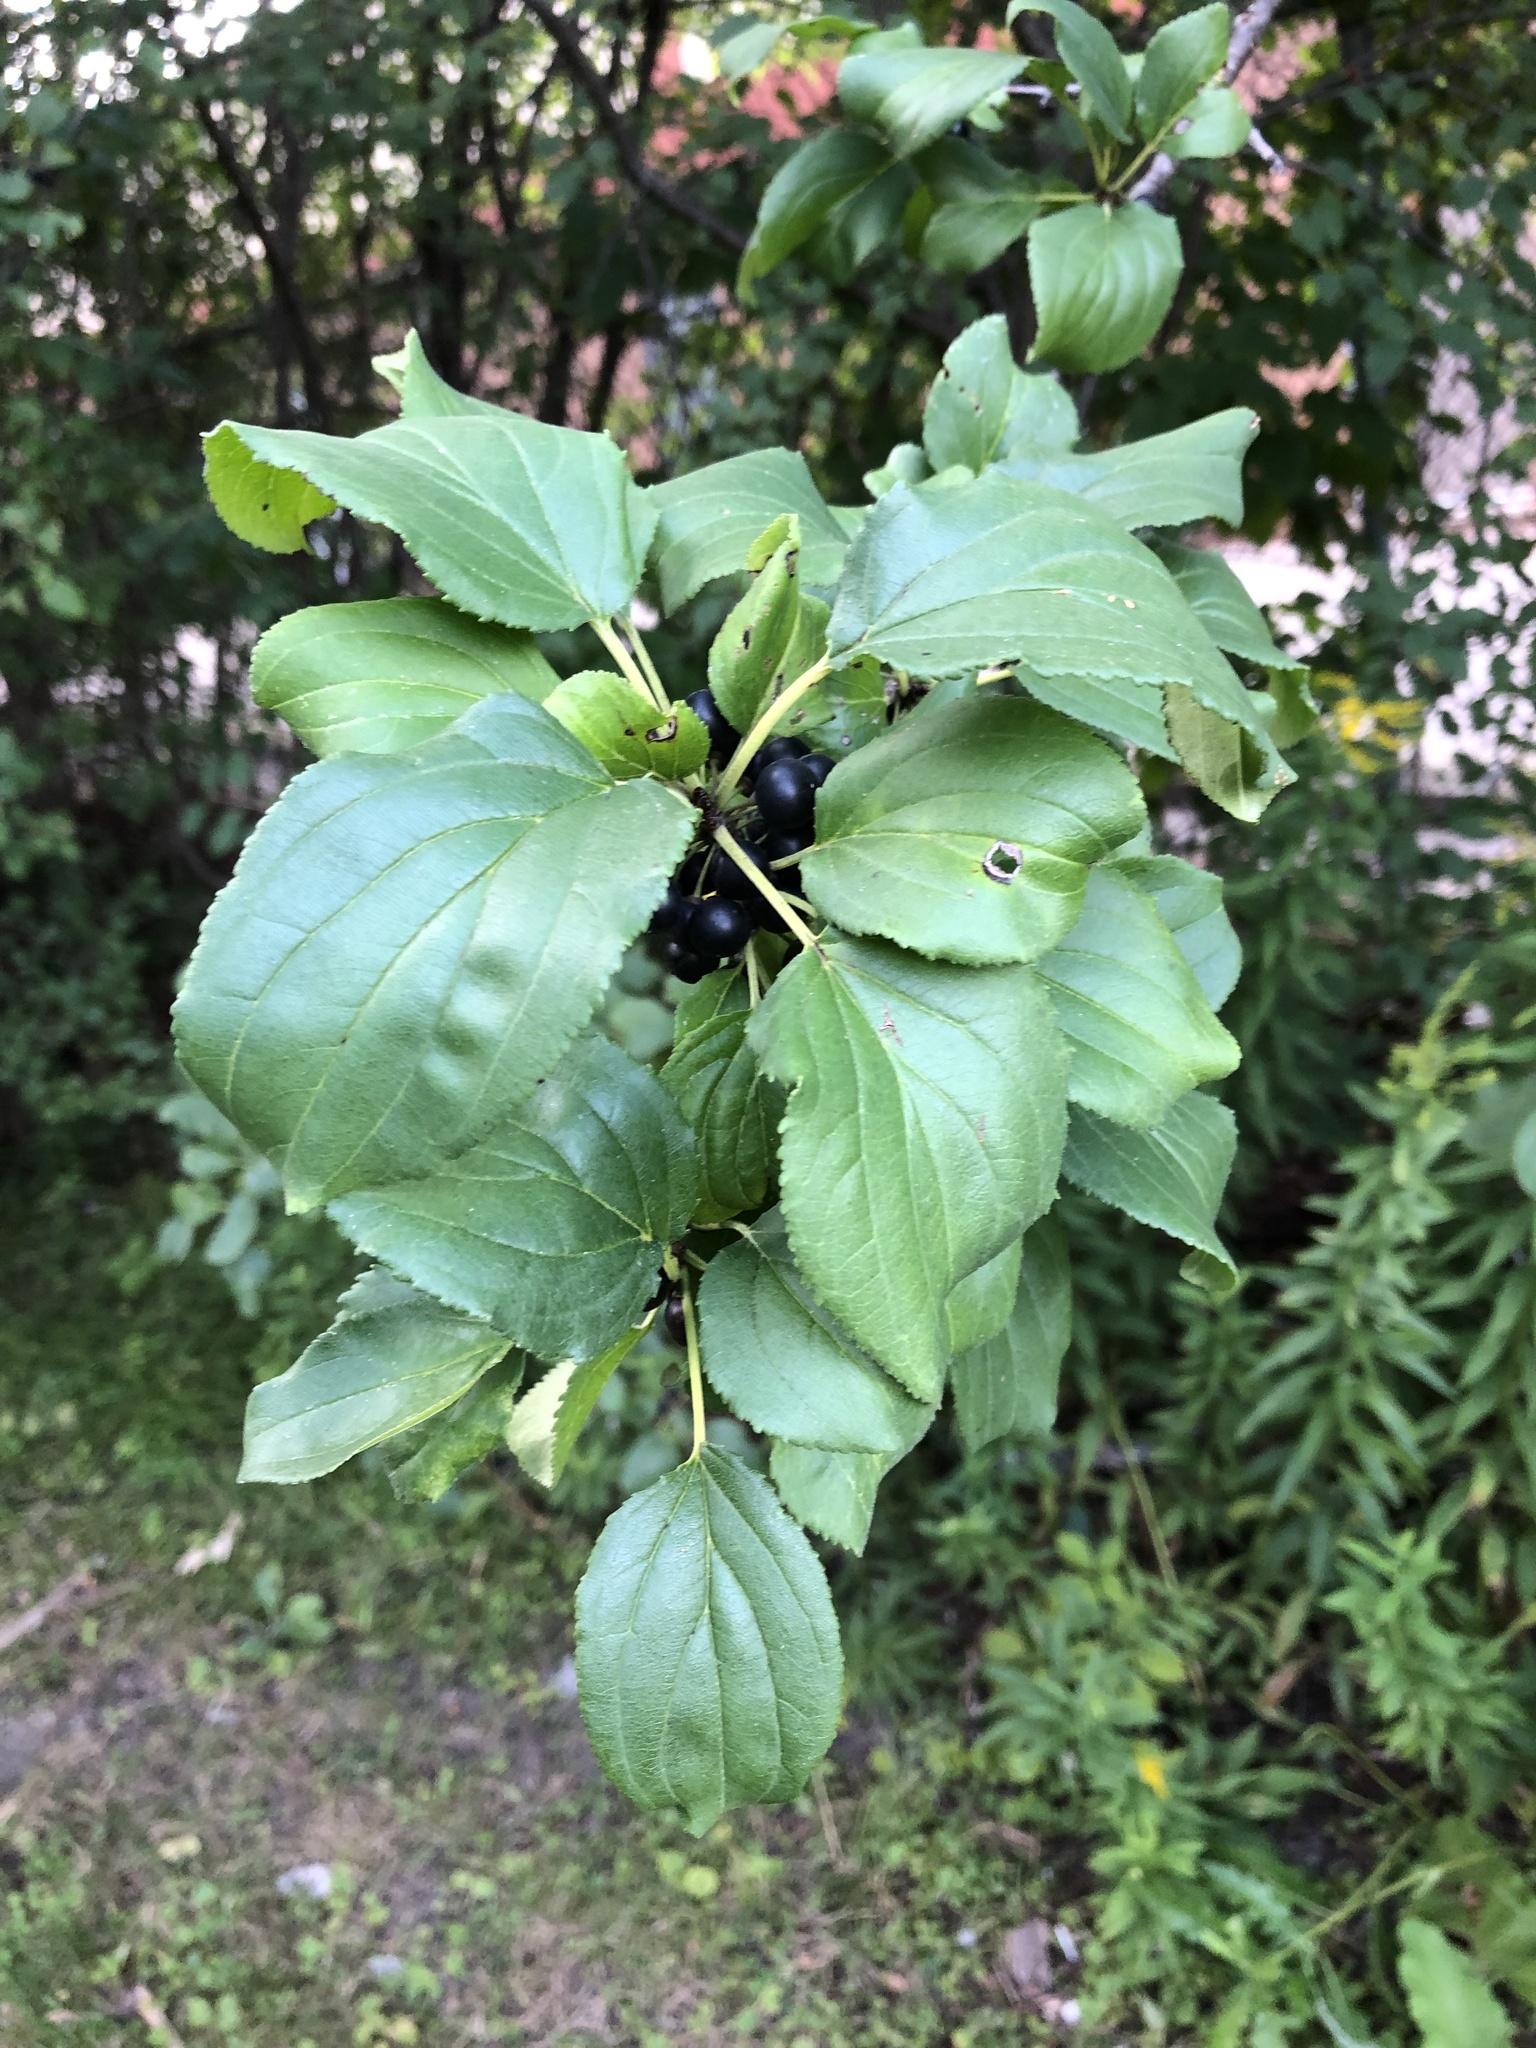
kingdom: Plantae
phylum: Tracheophyta
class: Magnoliopsida
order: Rosales
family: Rhamnaceae
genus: Rhamnus
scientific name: Rhamnus cathartica
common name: Common buckthorn
